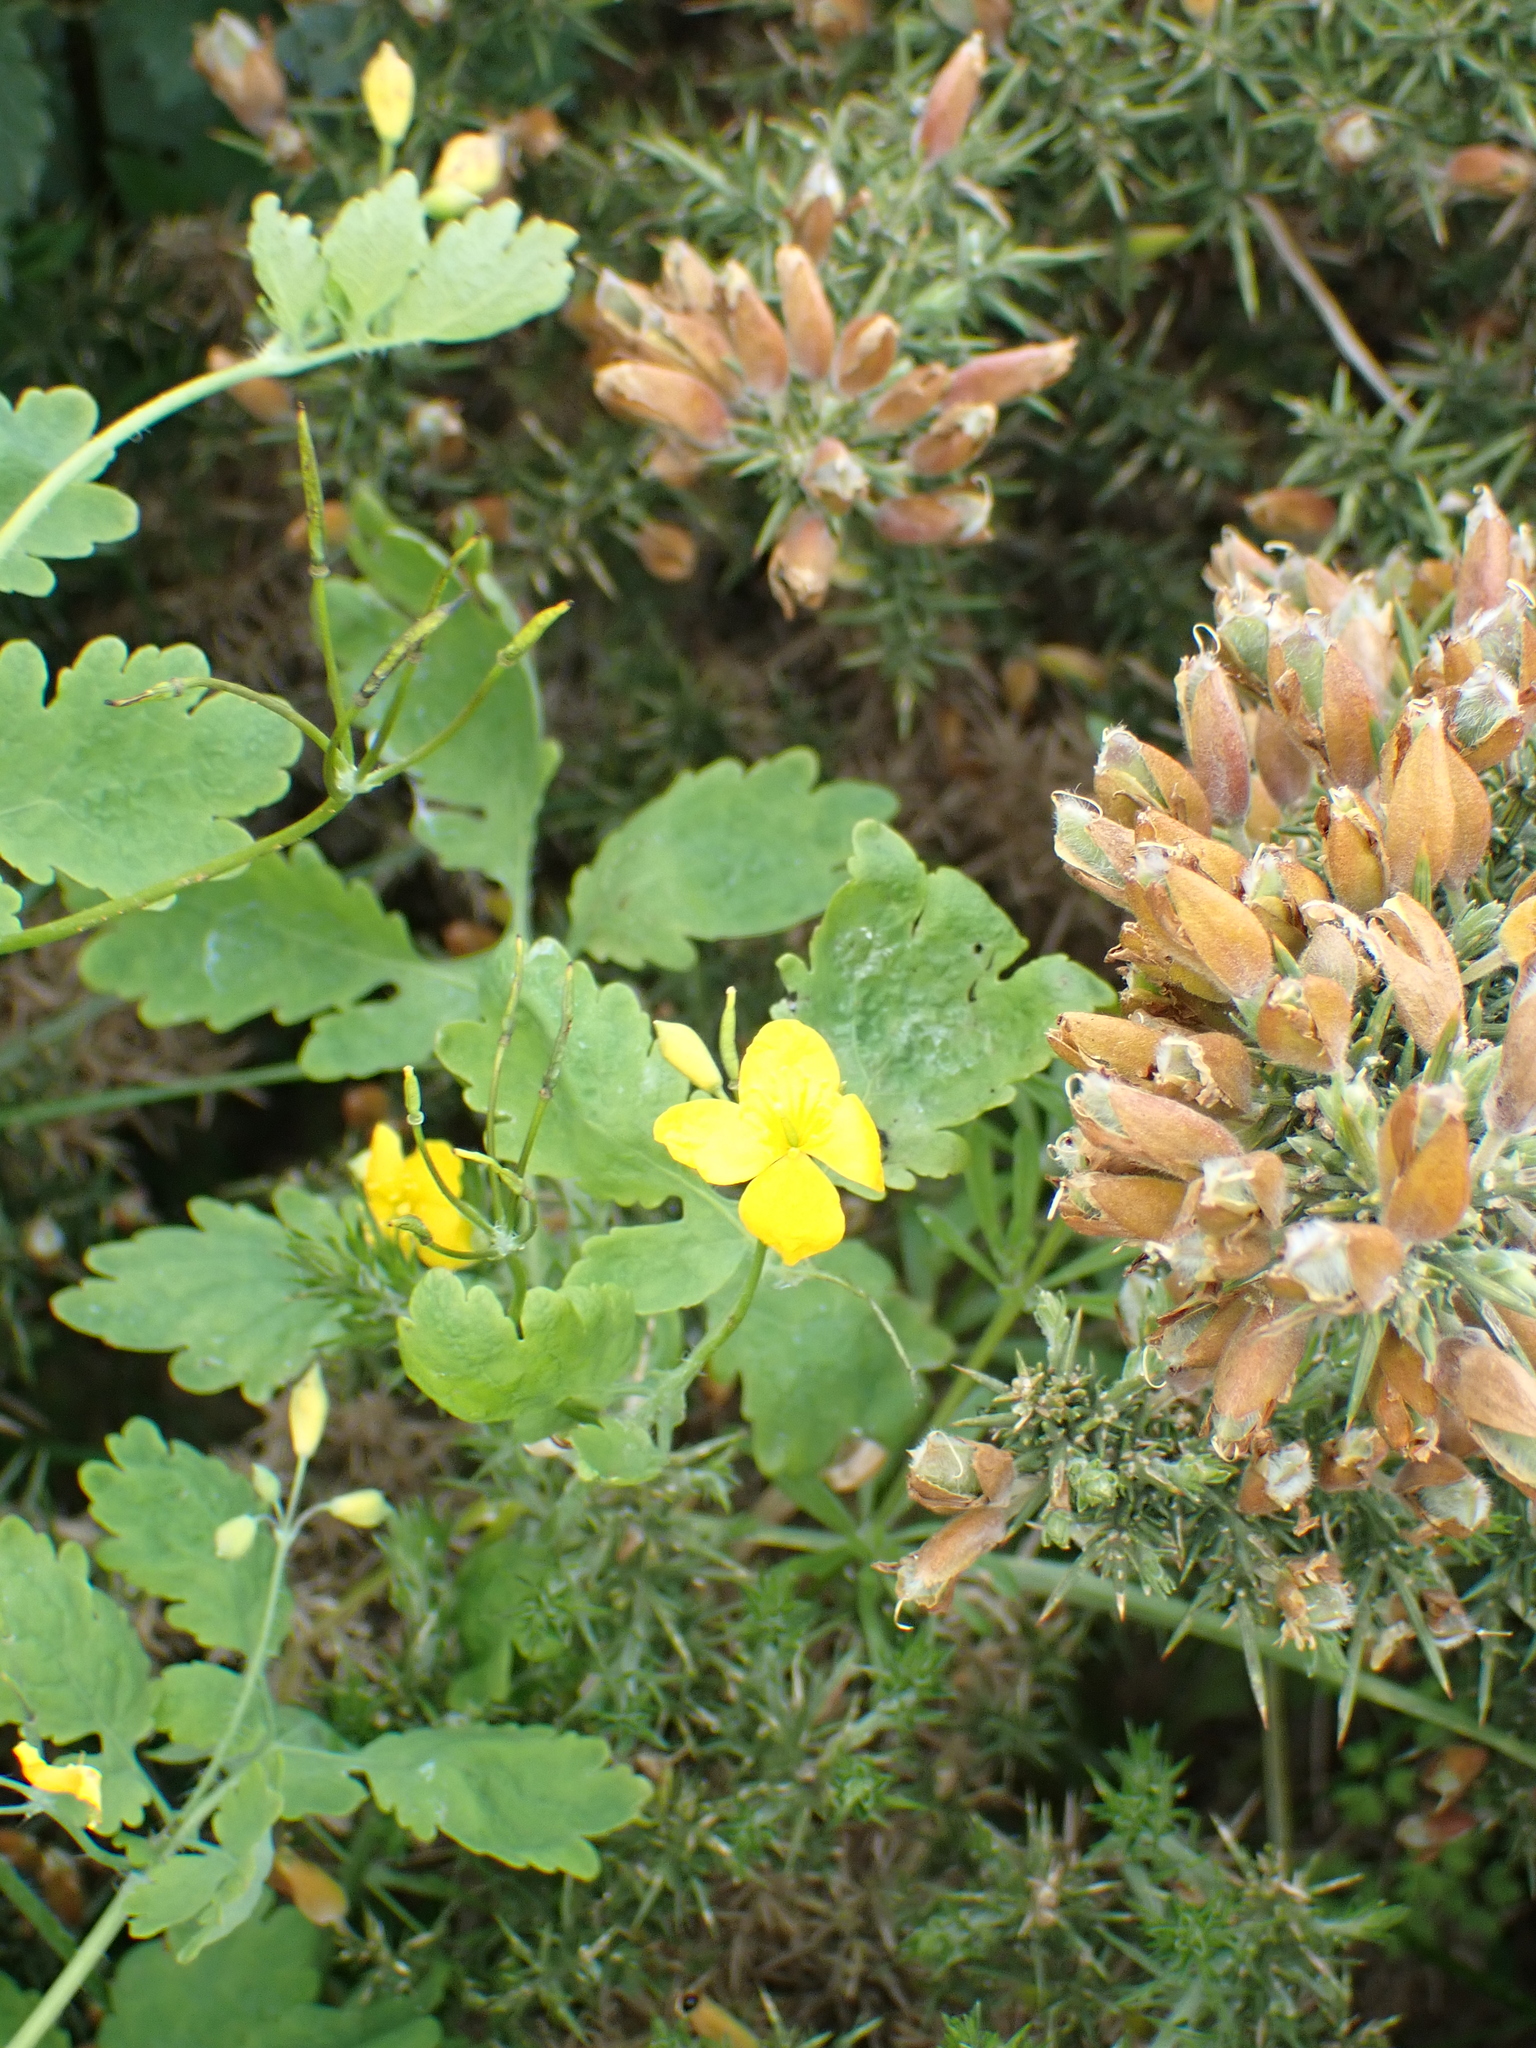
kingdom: Plantae
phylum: Tracheophyta
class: Magnoliopsida
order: Ranunculales
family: Papaveraceae
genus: Chelidonium
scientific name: Chelidonium majus
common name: Greater celandine
